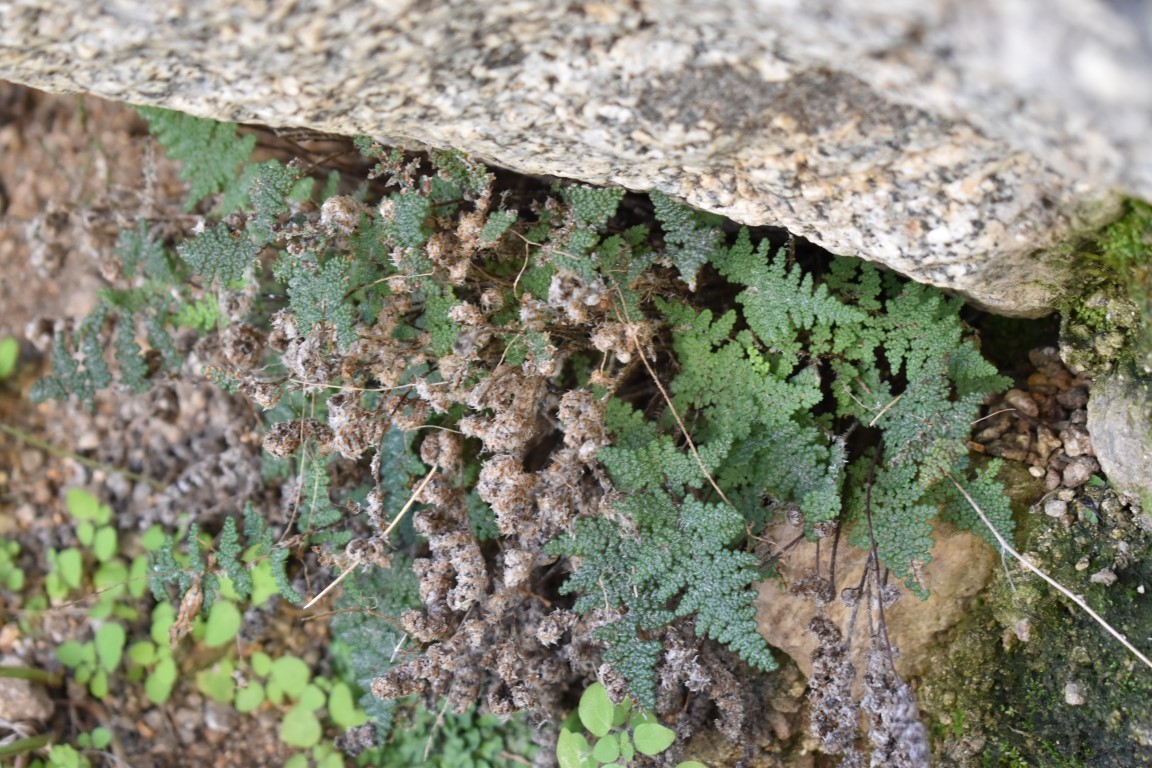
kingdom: Plantae
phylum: Tracheophyta
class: Polypodiopsida
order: Polypodiales
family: Pteridaceae
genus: Myriopteris
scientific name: Myriopteris covillei
